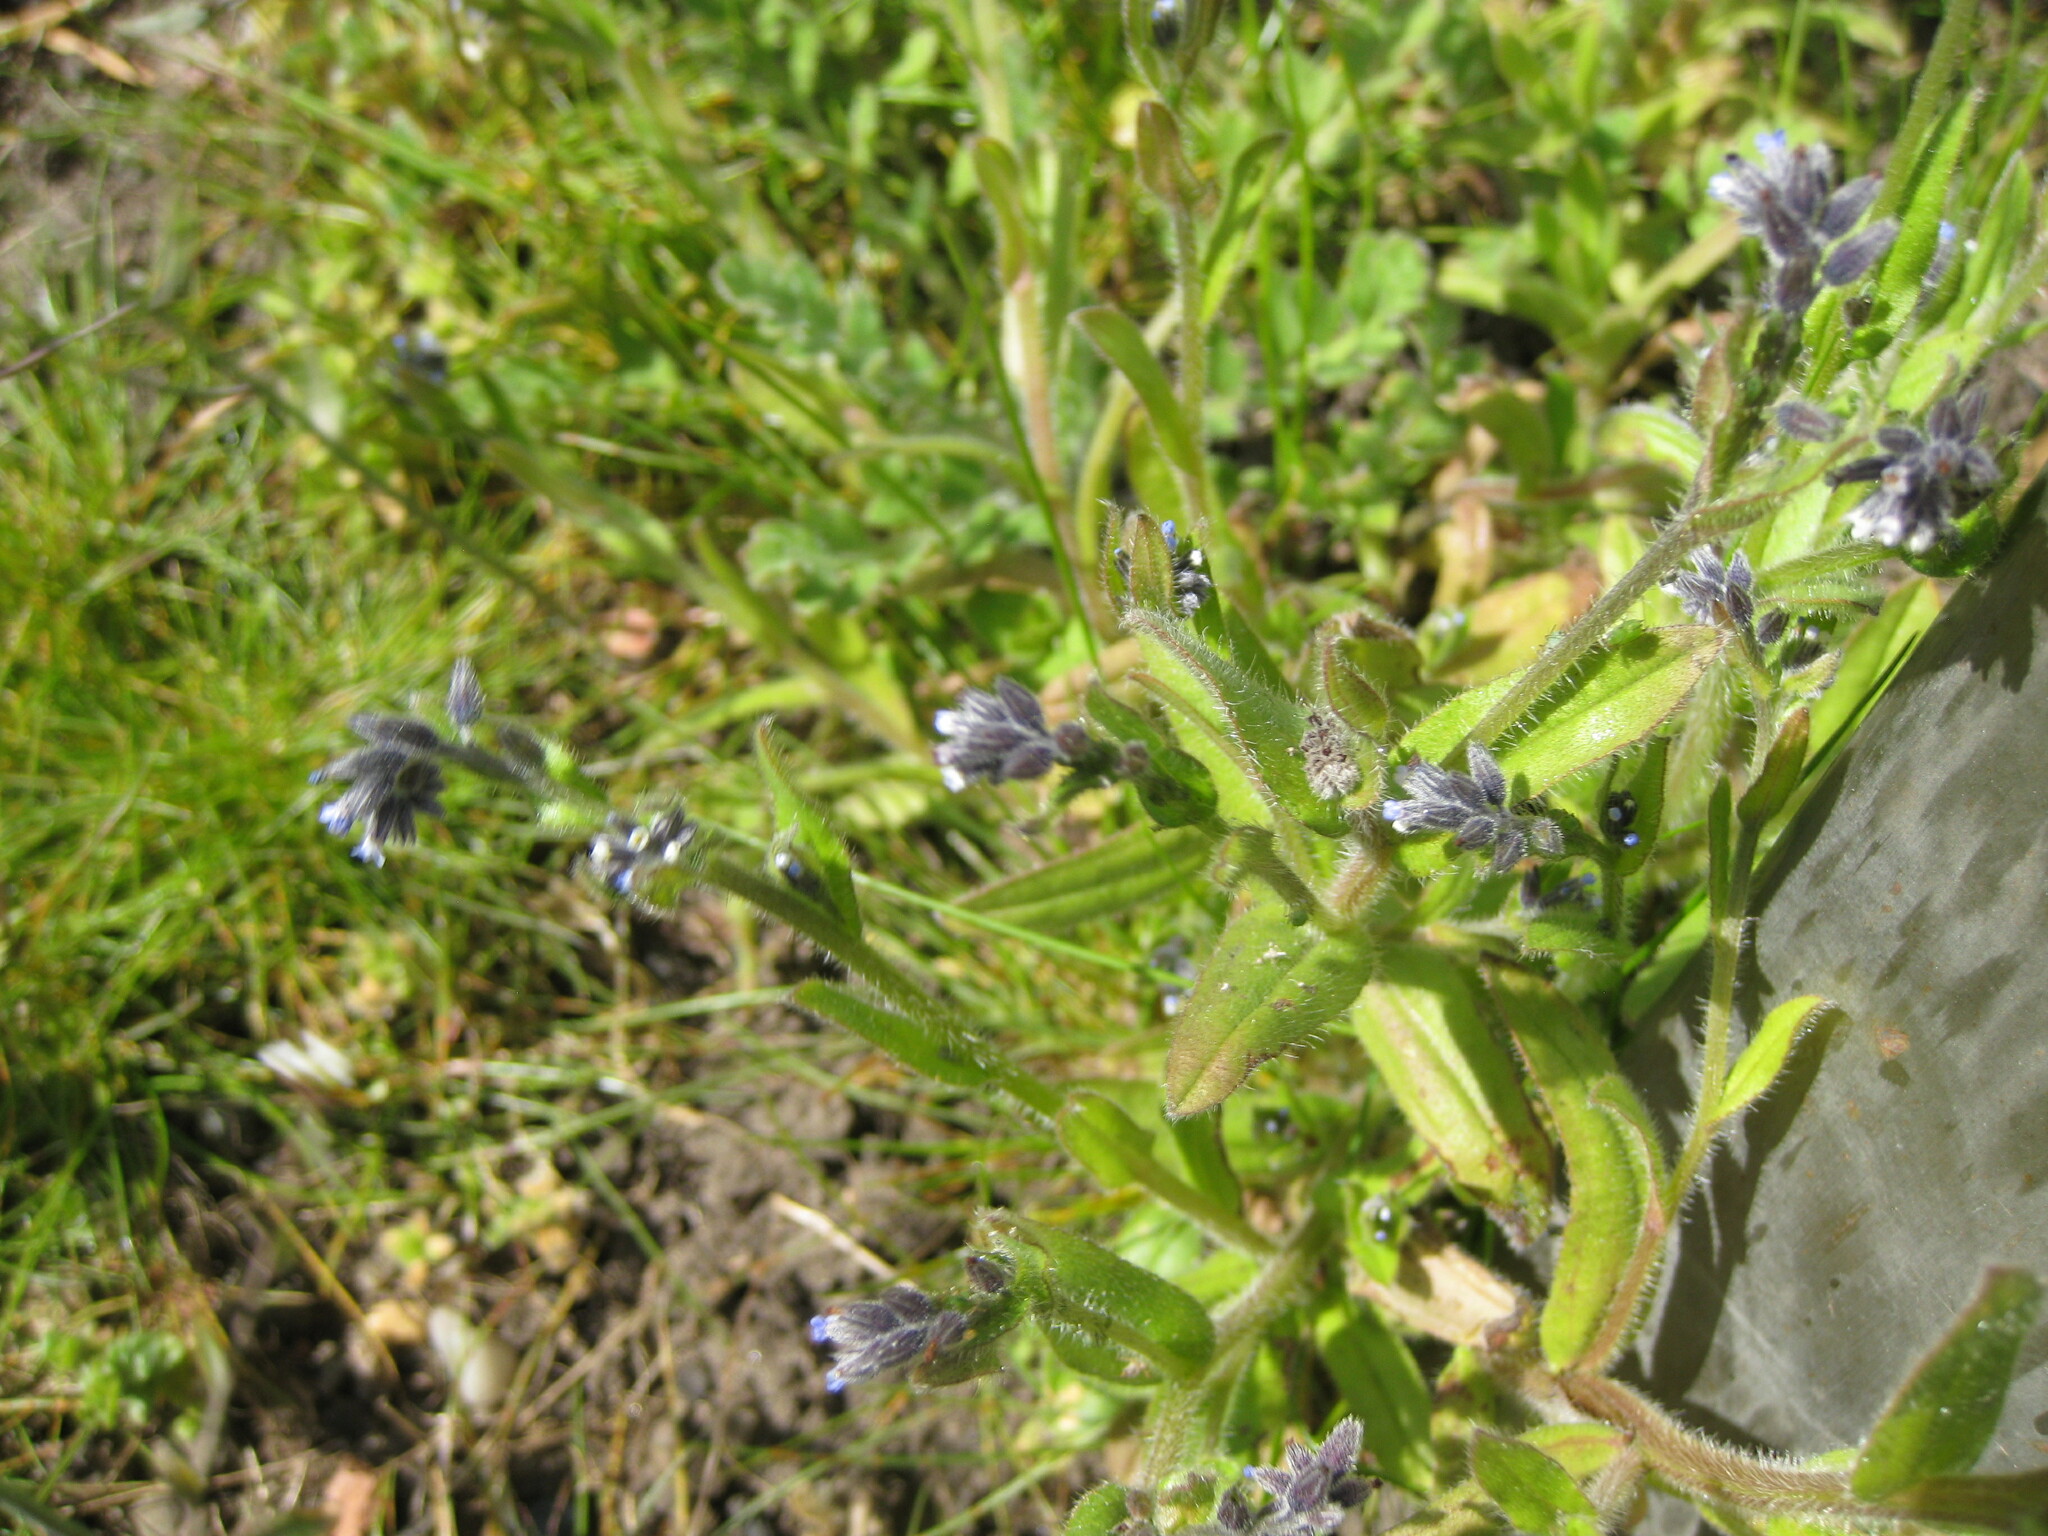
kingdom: Plantae
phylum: Tracheophyta
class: Magnoliopsida
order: Boraginales
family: Boraginaceae
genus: Myosotis
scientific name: Myosotis discolor
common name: Changing forget-me-not
